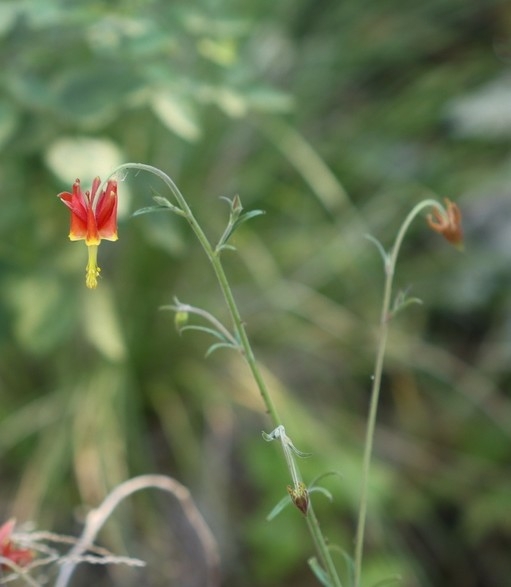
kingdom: Plantae
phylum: Tracheophyta
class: Magnoliopsida
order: Ranunculales
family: Ranunculaceae
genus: Aquilegia
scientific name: Aquilegia eximia
